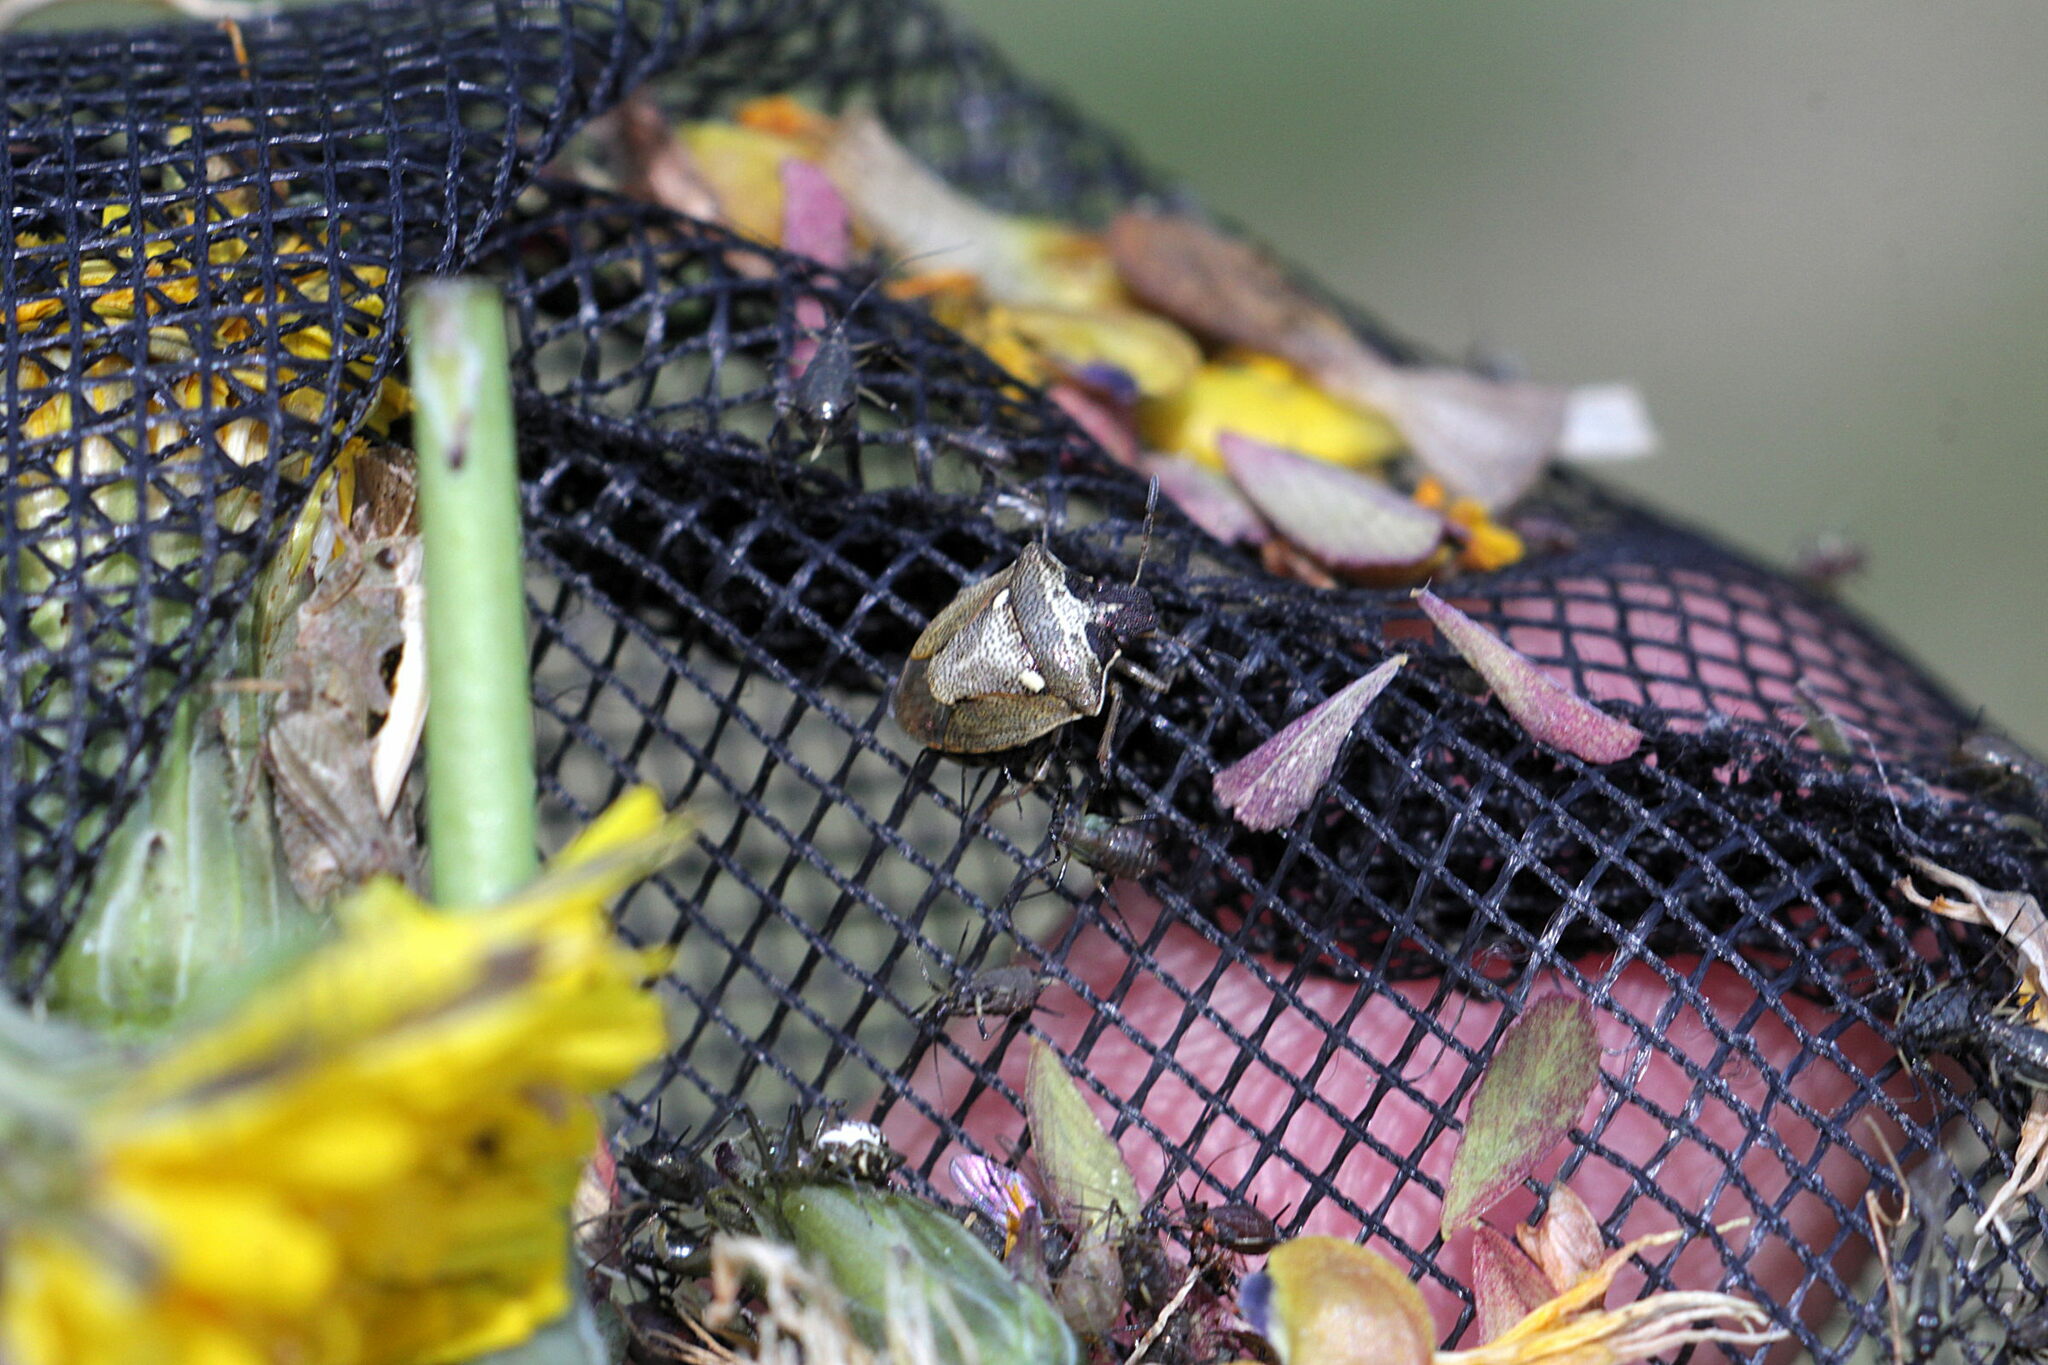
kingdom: Animalia
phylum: Arthropoda
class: Insecta
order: Hemiptera
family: Pentatomidae
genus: Eysarcoris
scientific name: Eysarcoris aeneus
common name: New forest shieldbug
